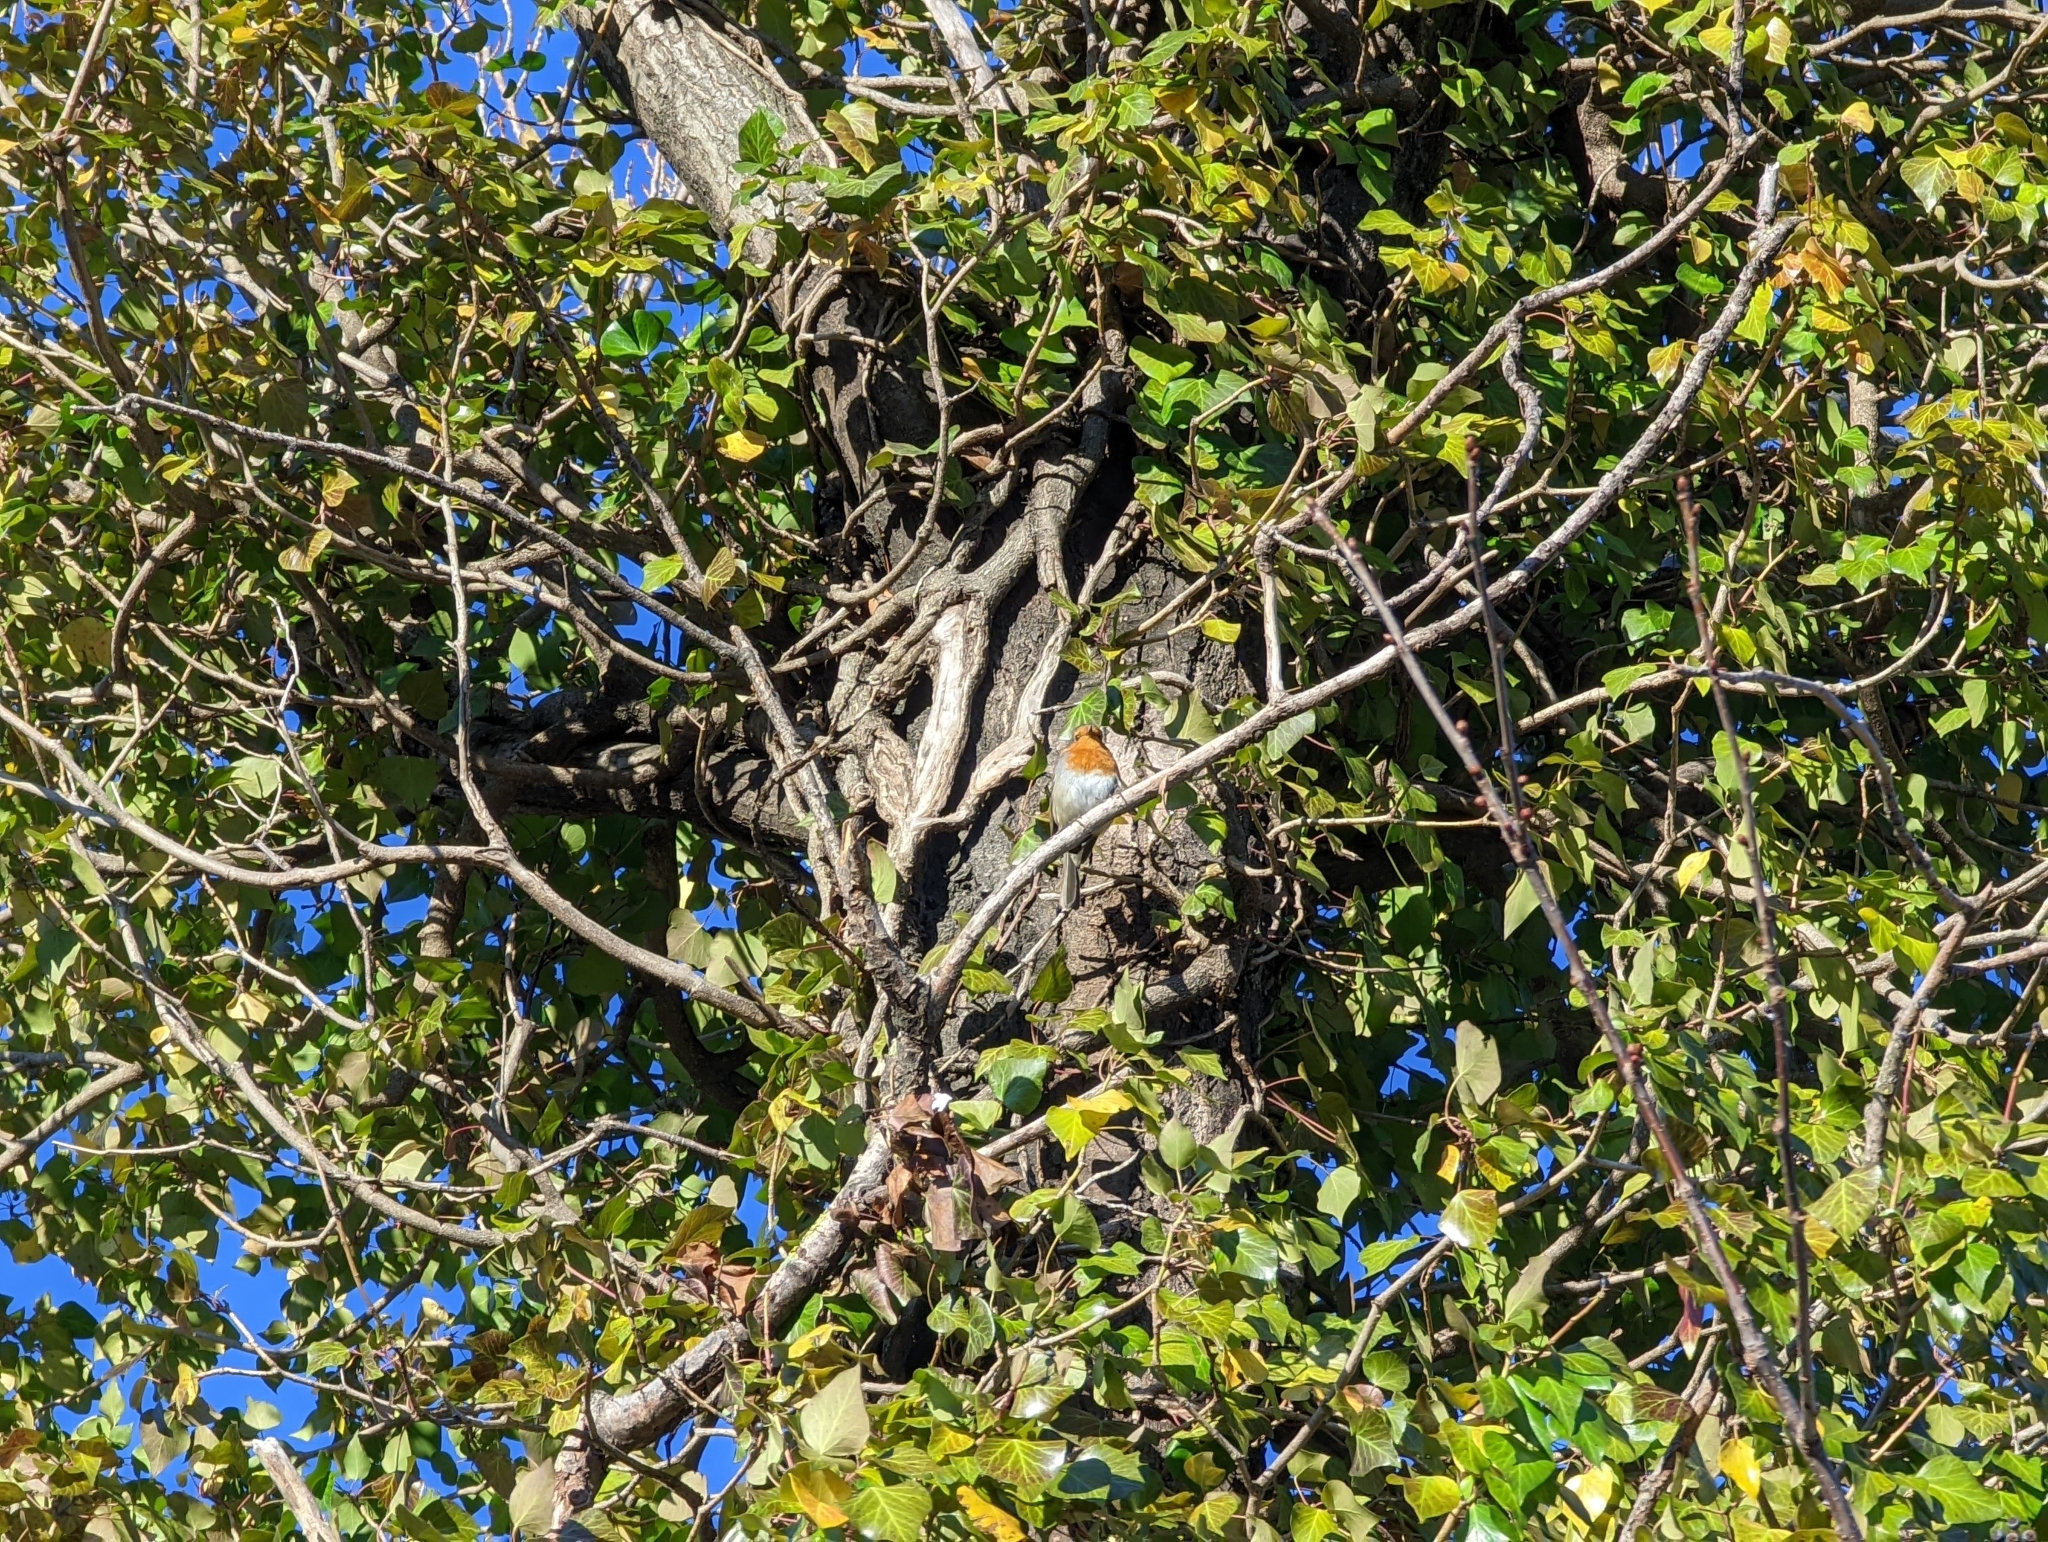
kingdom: Animalia
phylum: Chordata
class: Aves
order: Passeriformes
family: Muscicapidae
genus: Erithacus
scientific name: Erithacus rubecula
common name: European robin
